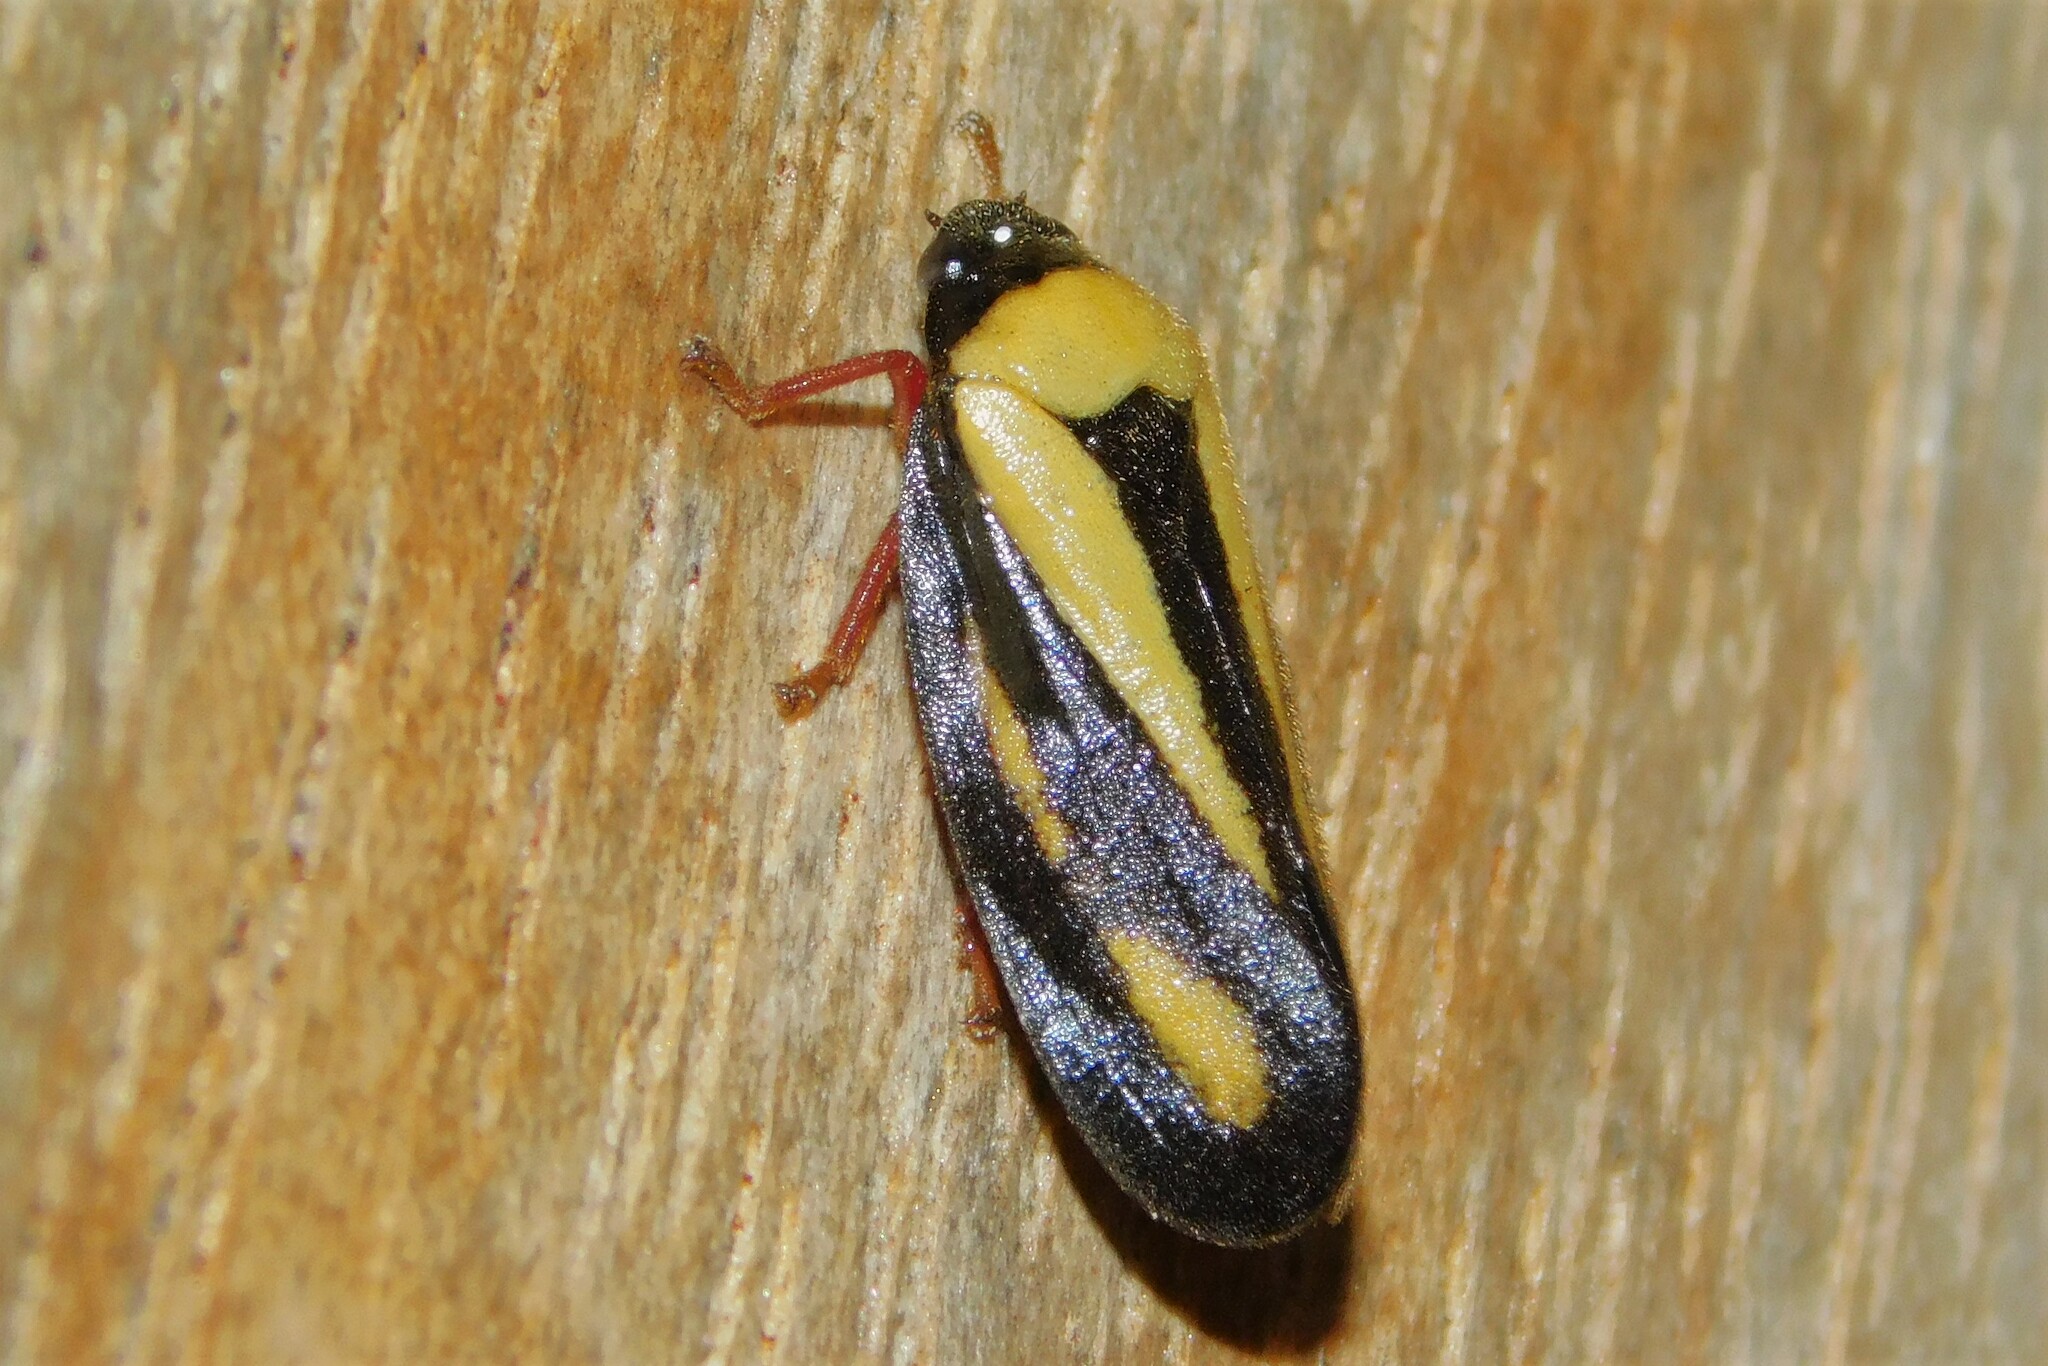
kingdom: Animalia
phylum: Arthropoda
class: Insecta
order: Hemiptera
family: Cercopidae
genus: Hemitriecphora
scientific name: Hemitriecphora haglundi
